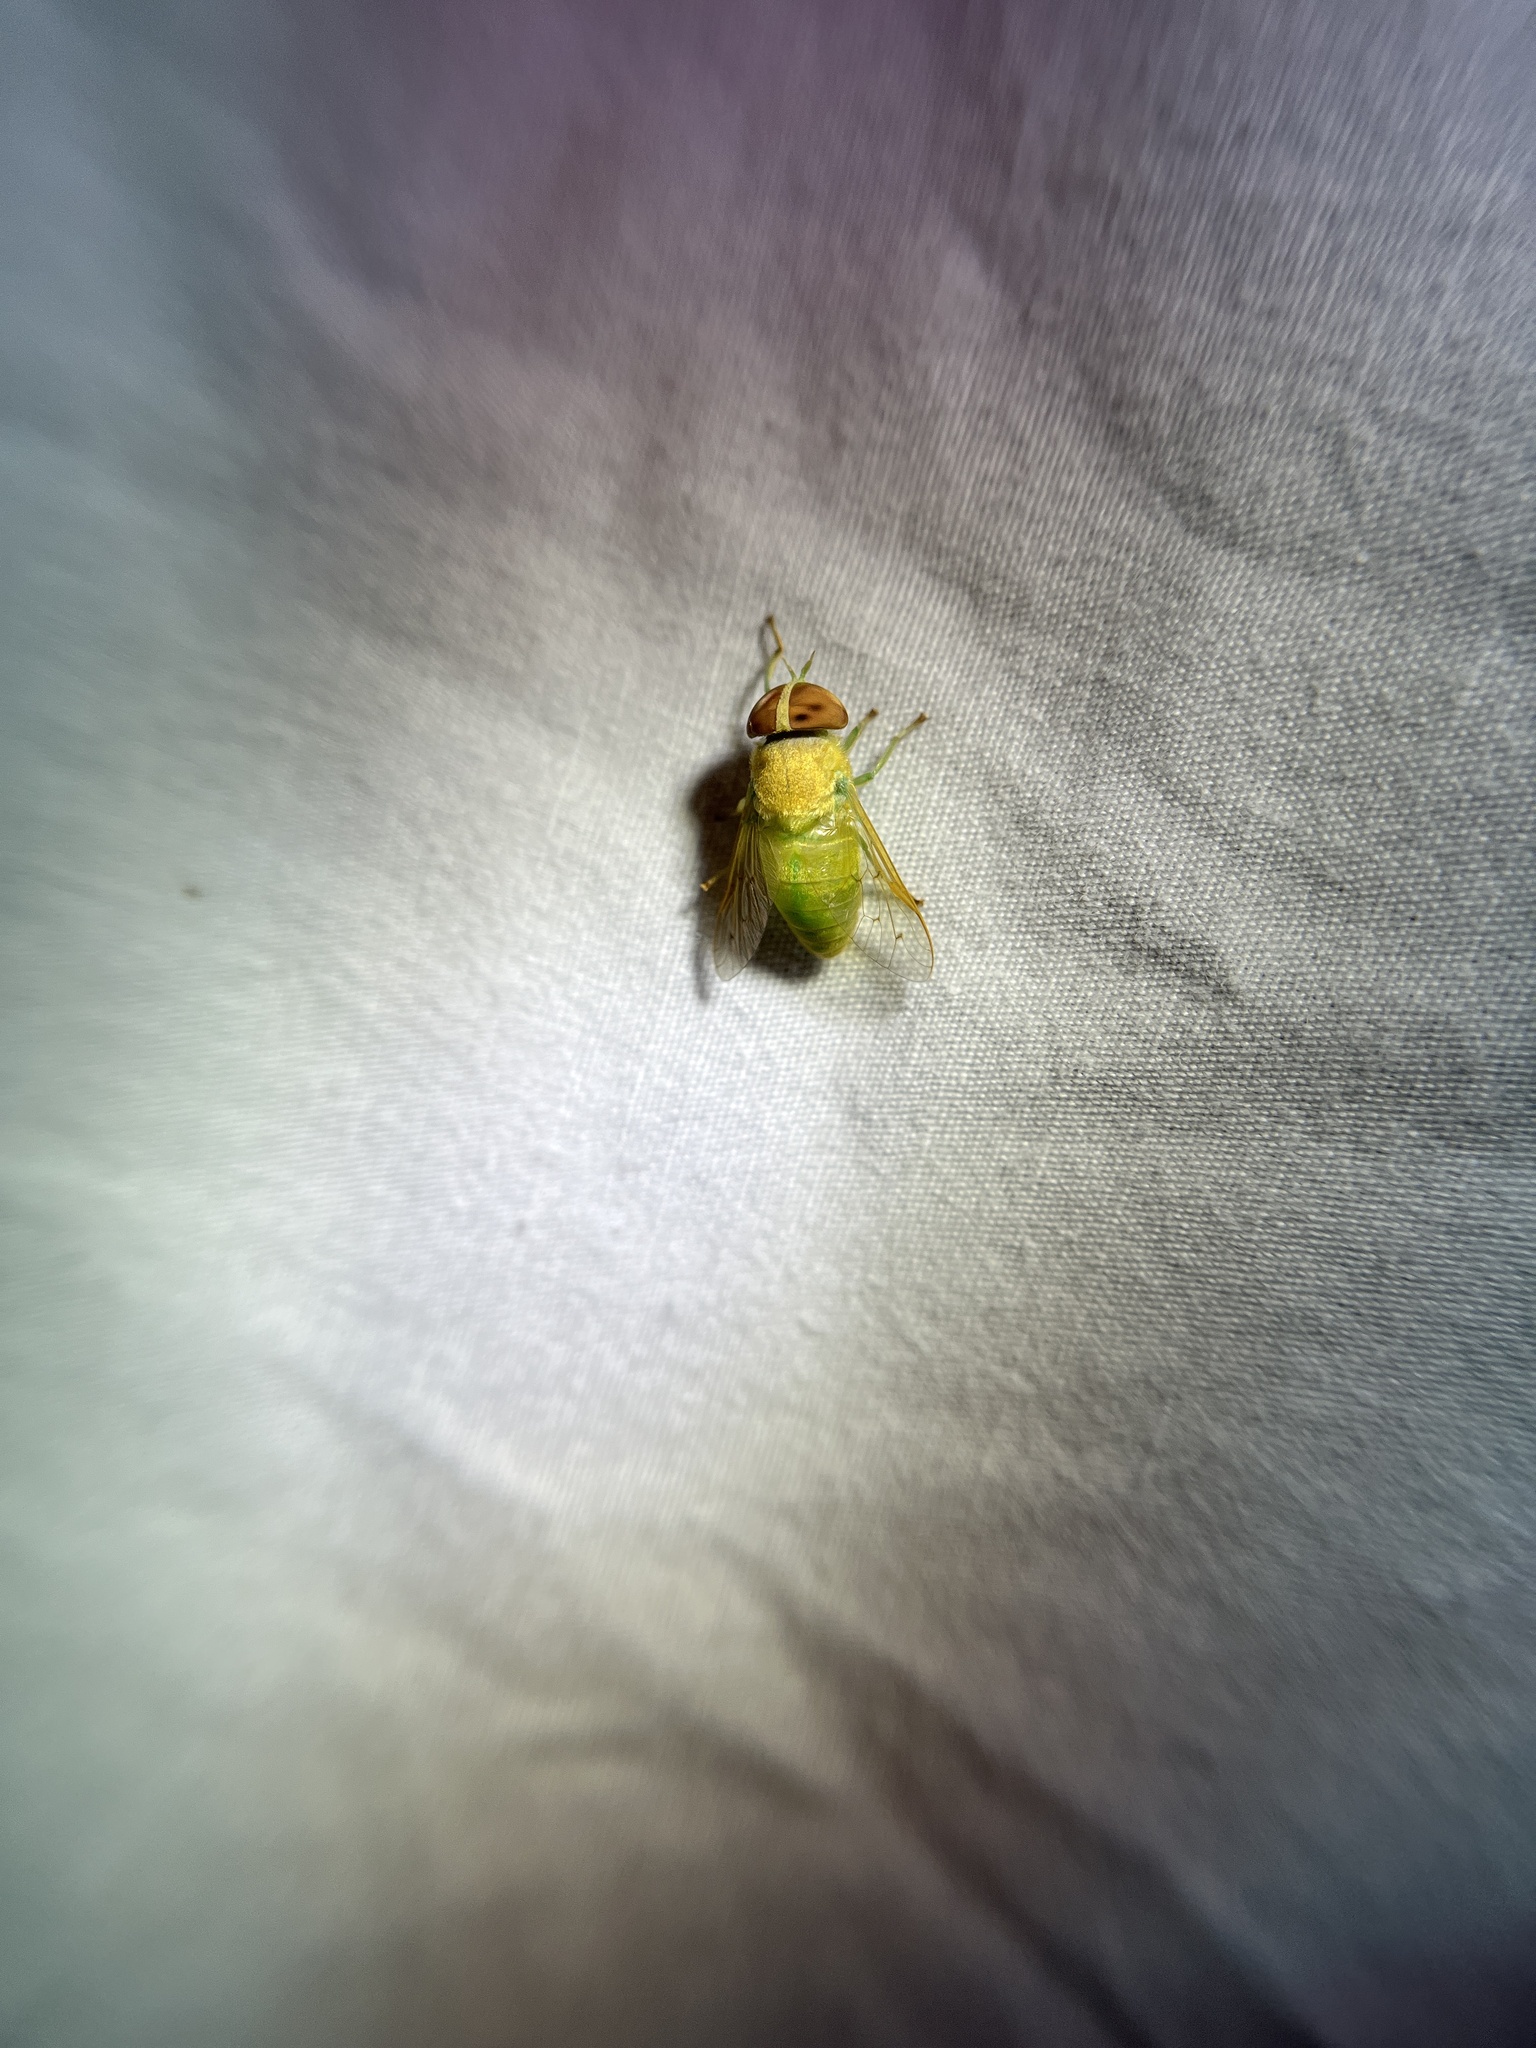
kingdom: Animalia
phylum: Arthropoda
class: Insecta
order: Diptera
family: Tabanidae
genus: Chlorotabanus
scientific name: Chlorotabanus crepuscularis
